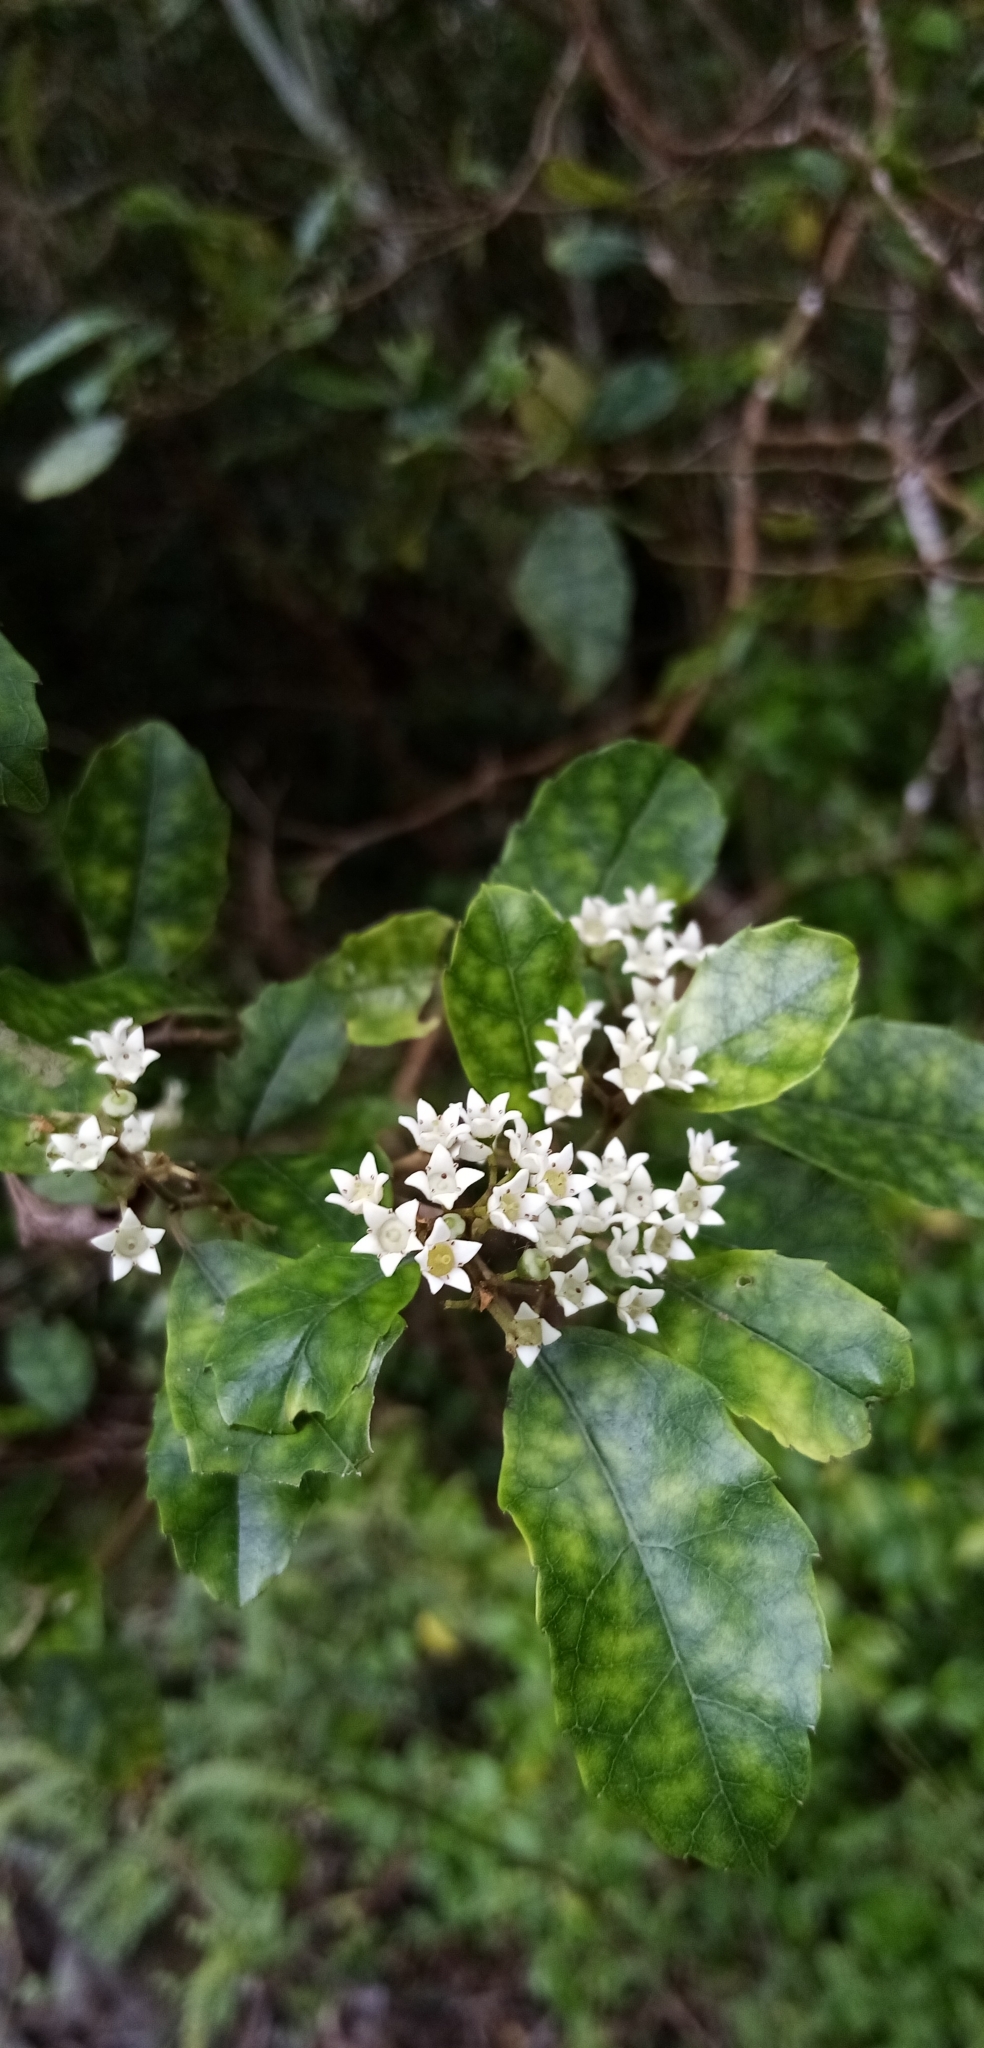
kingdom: Plantae
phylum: Tracheophyta
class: Magnoliopsida
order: Asterales
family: Rousseaceae
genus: Carpodetus
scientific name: Carpodetus serratus
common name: White mapau
